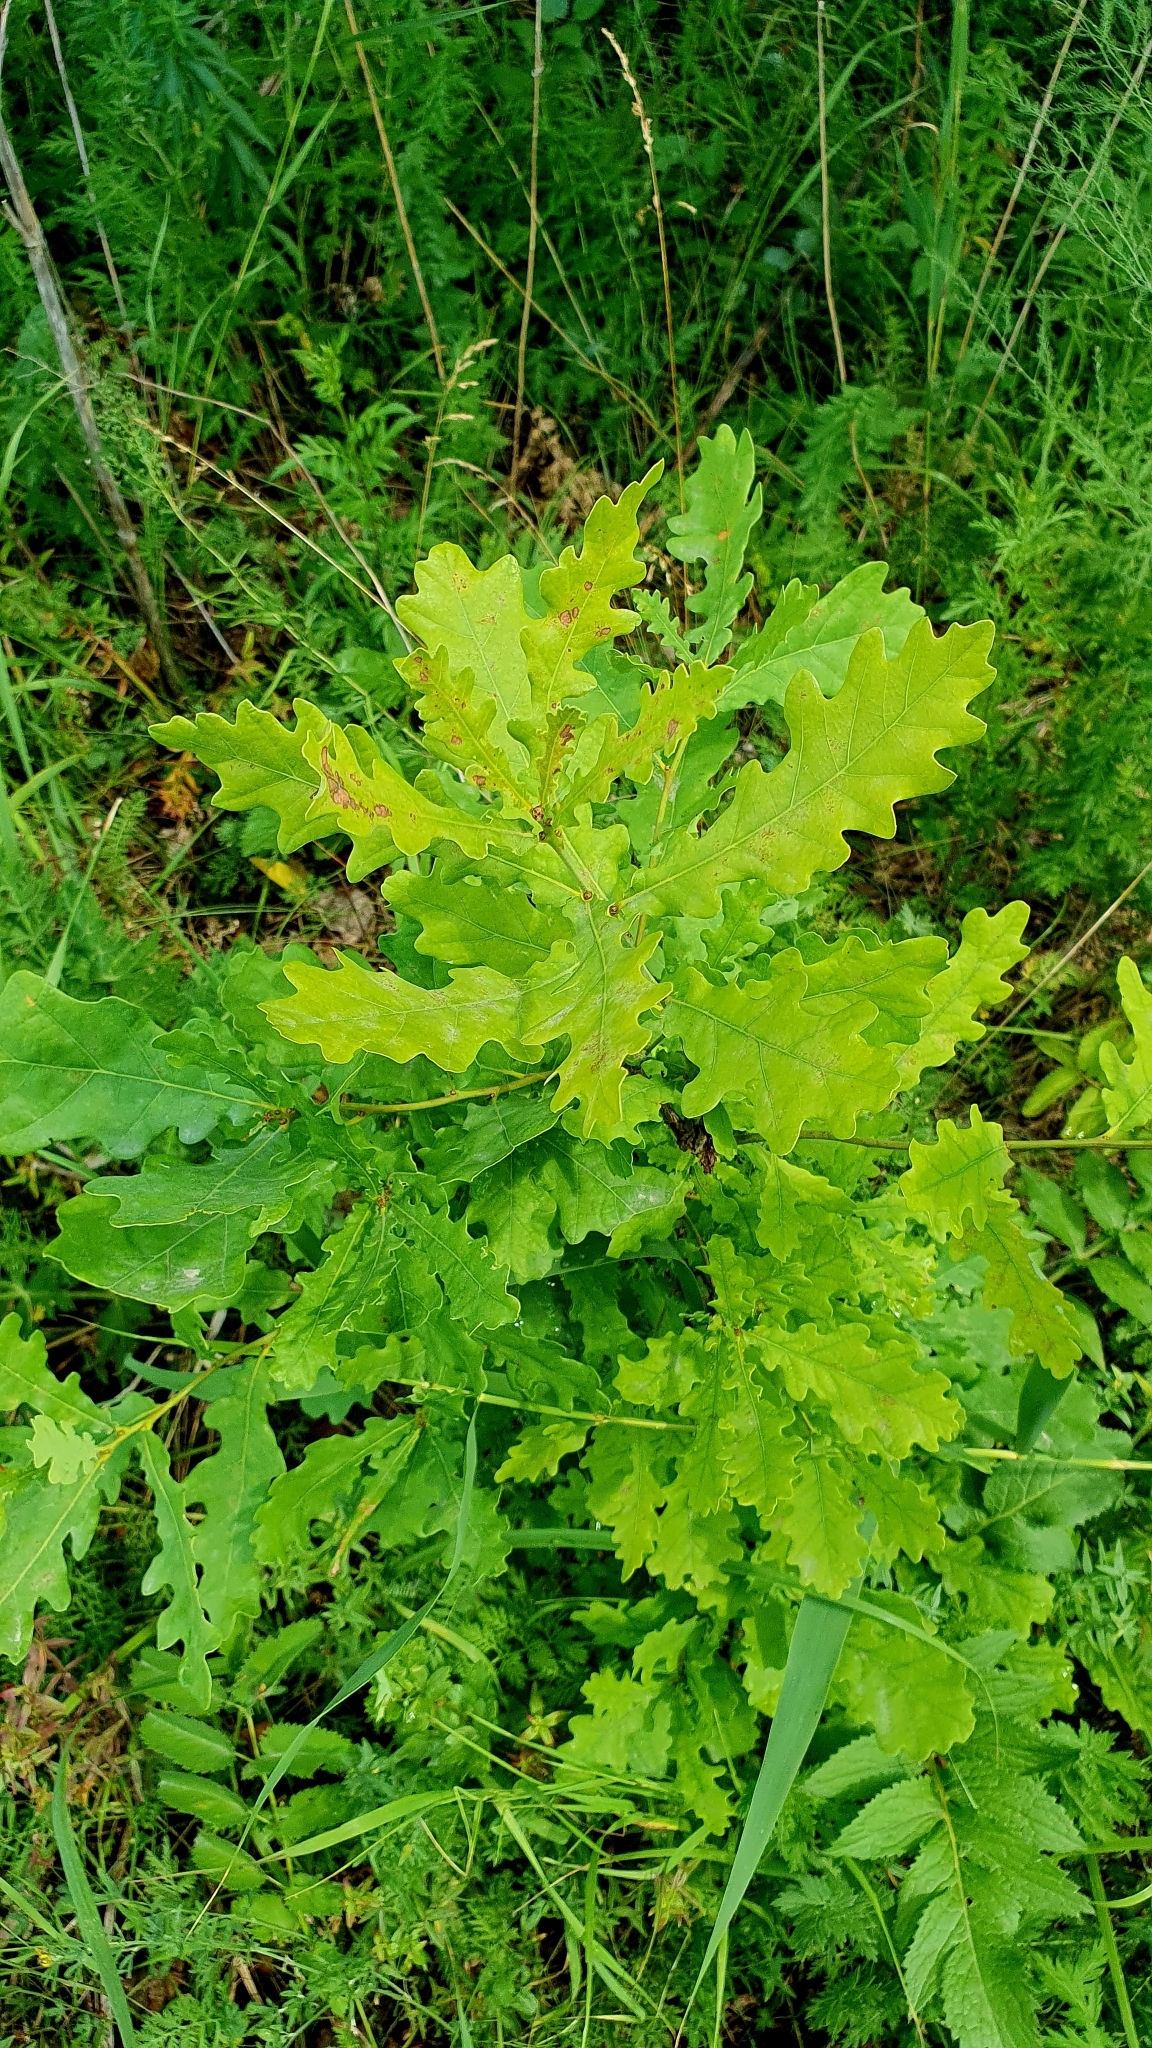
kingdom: Plantae
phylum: Tracheophyta
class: Magnoliopsida
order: Fagales
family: Fagaceae
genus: Quercus
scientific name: Quercus robur
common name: Pedunculate oak
